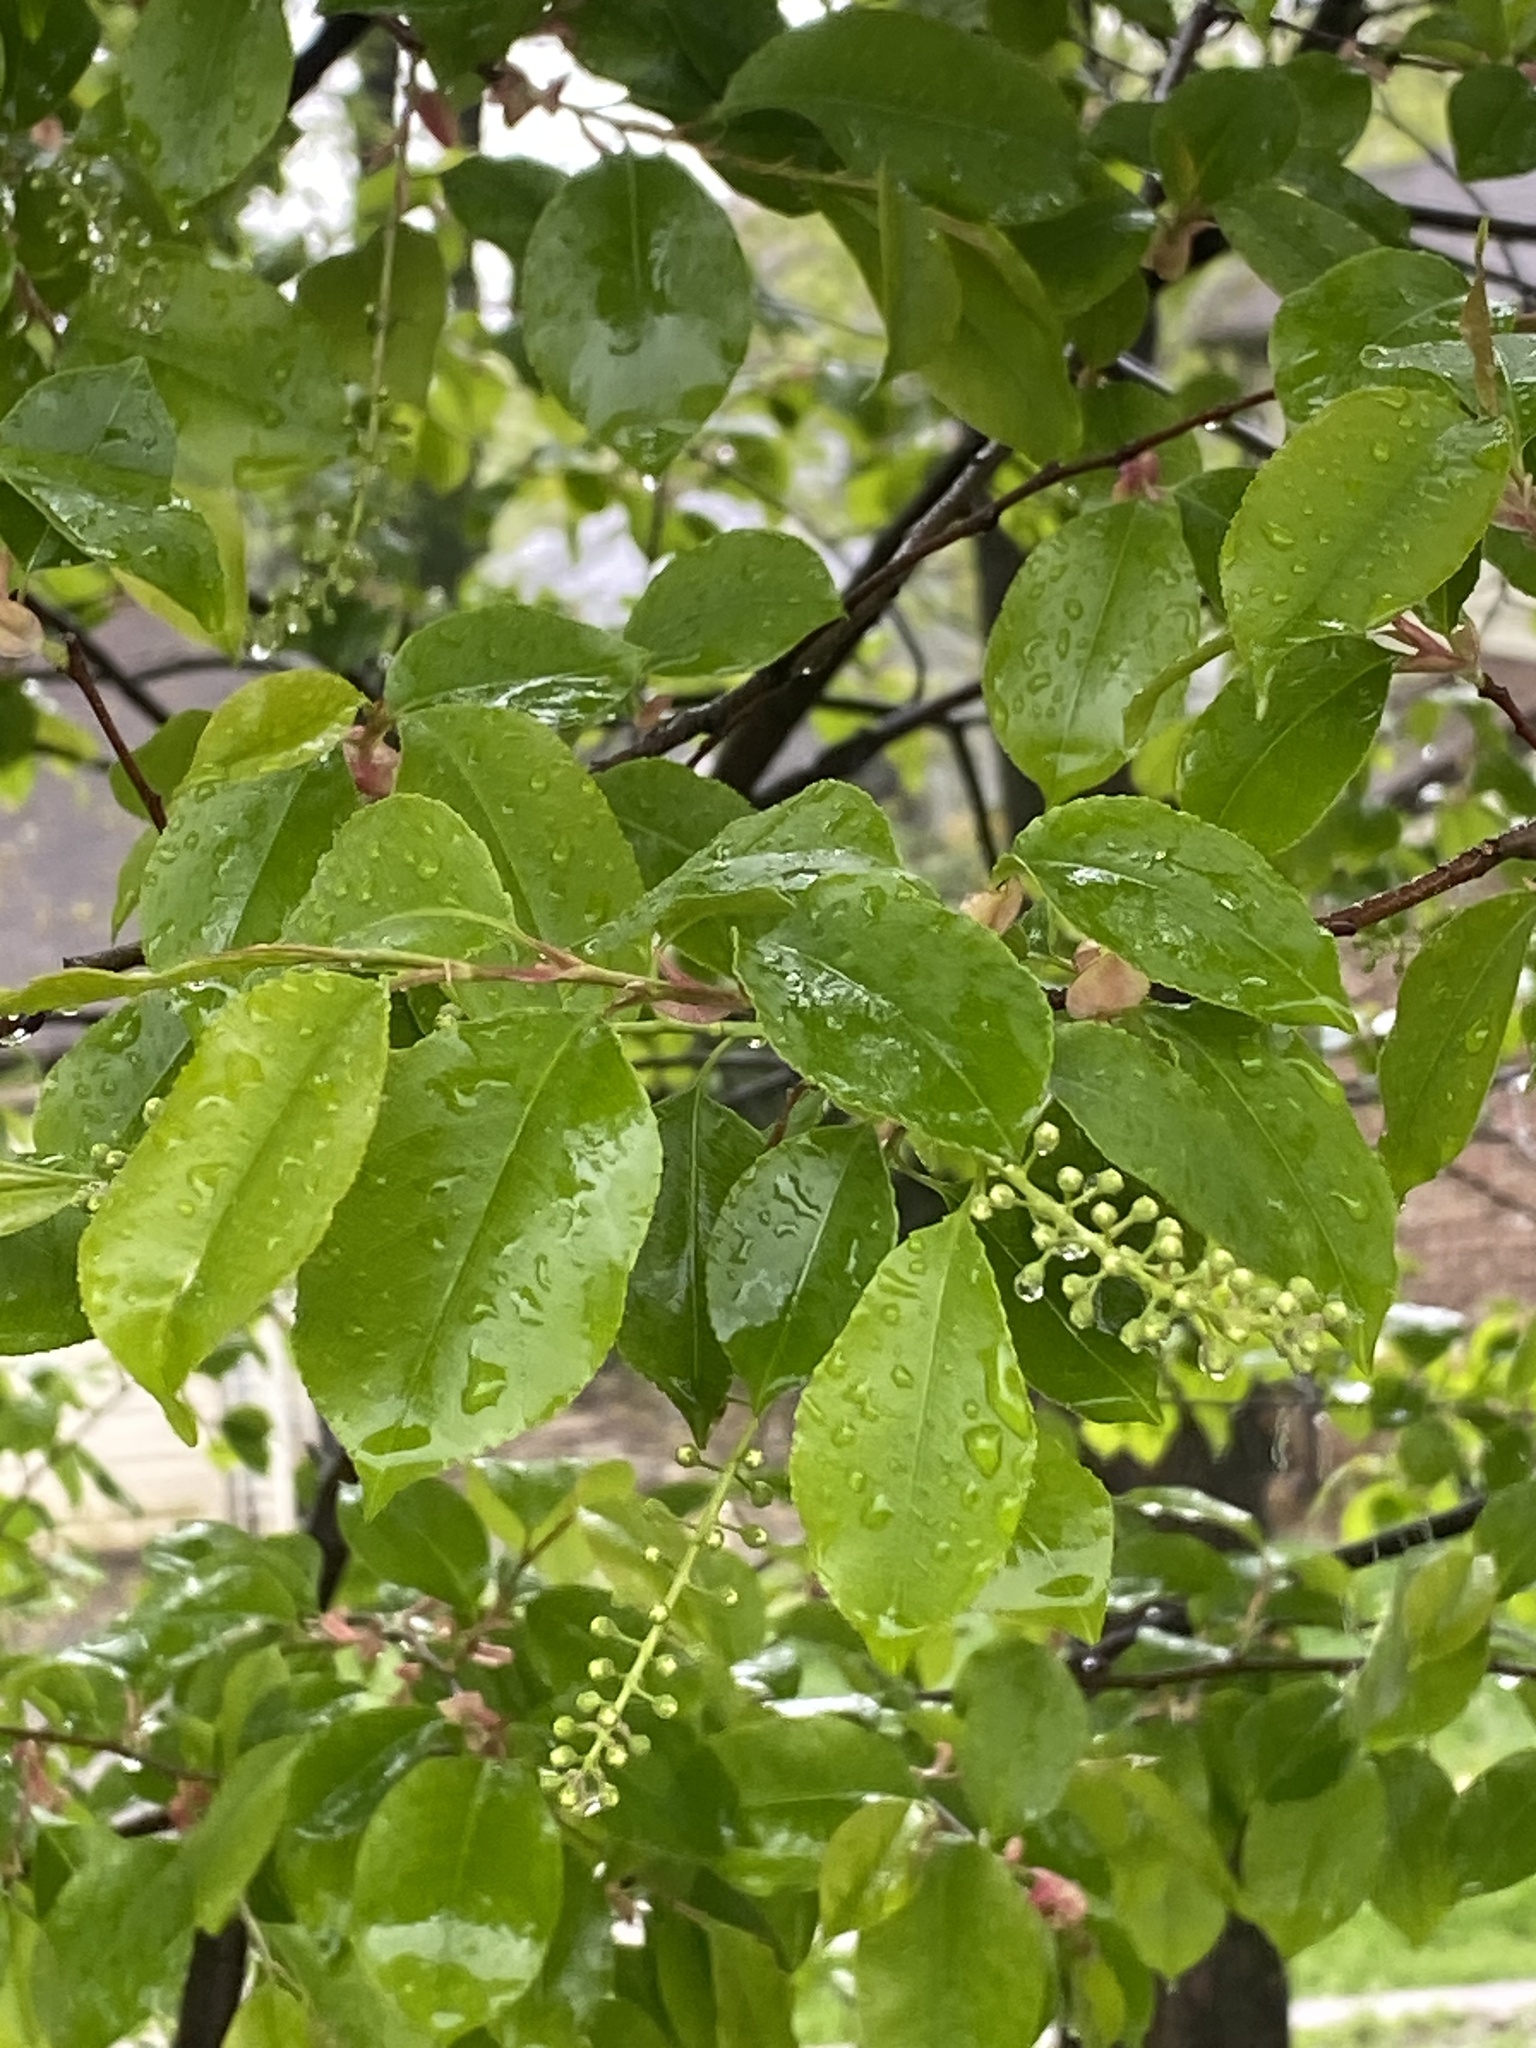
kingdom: Plantae
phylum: Tracheophyta
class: Magnoliopsida
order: Rosales
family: Rosaceae
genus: Prunus
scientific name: Prunus serotina
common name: Black cherry
